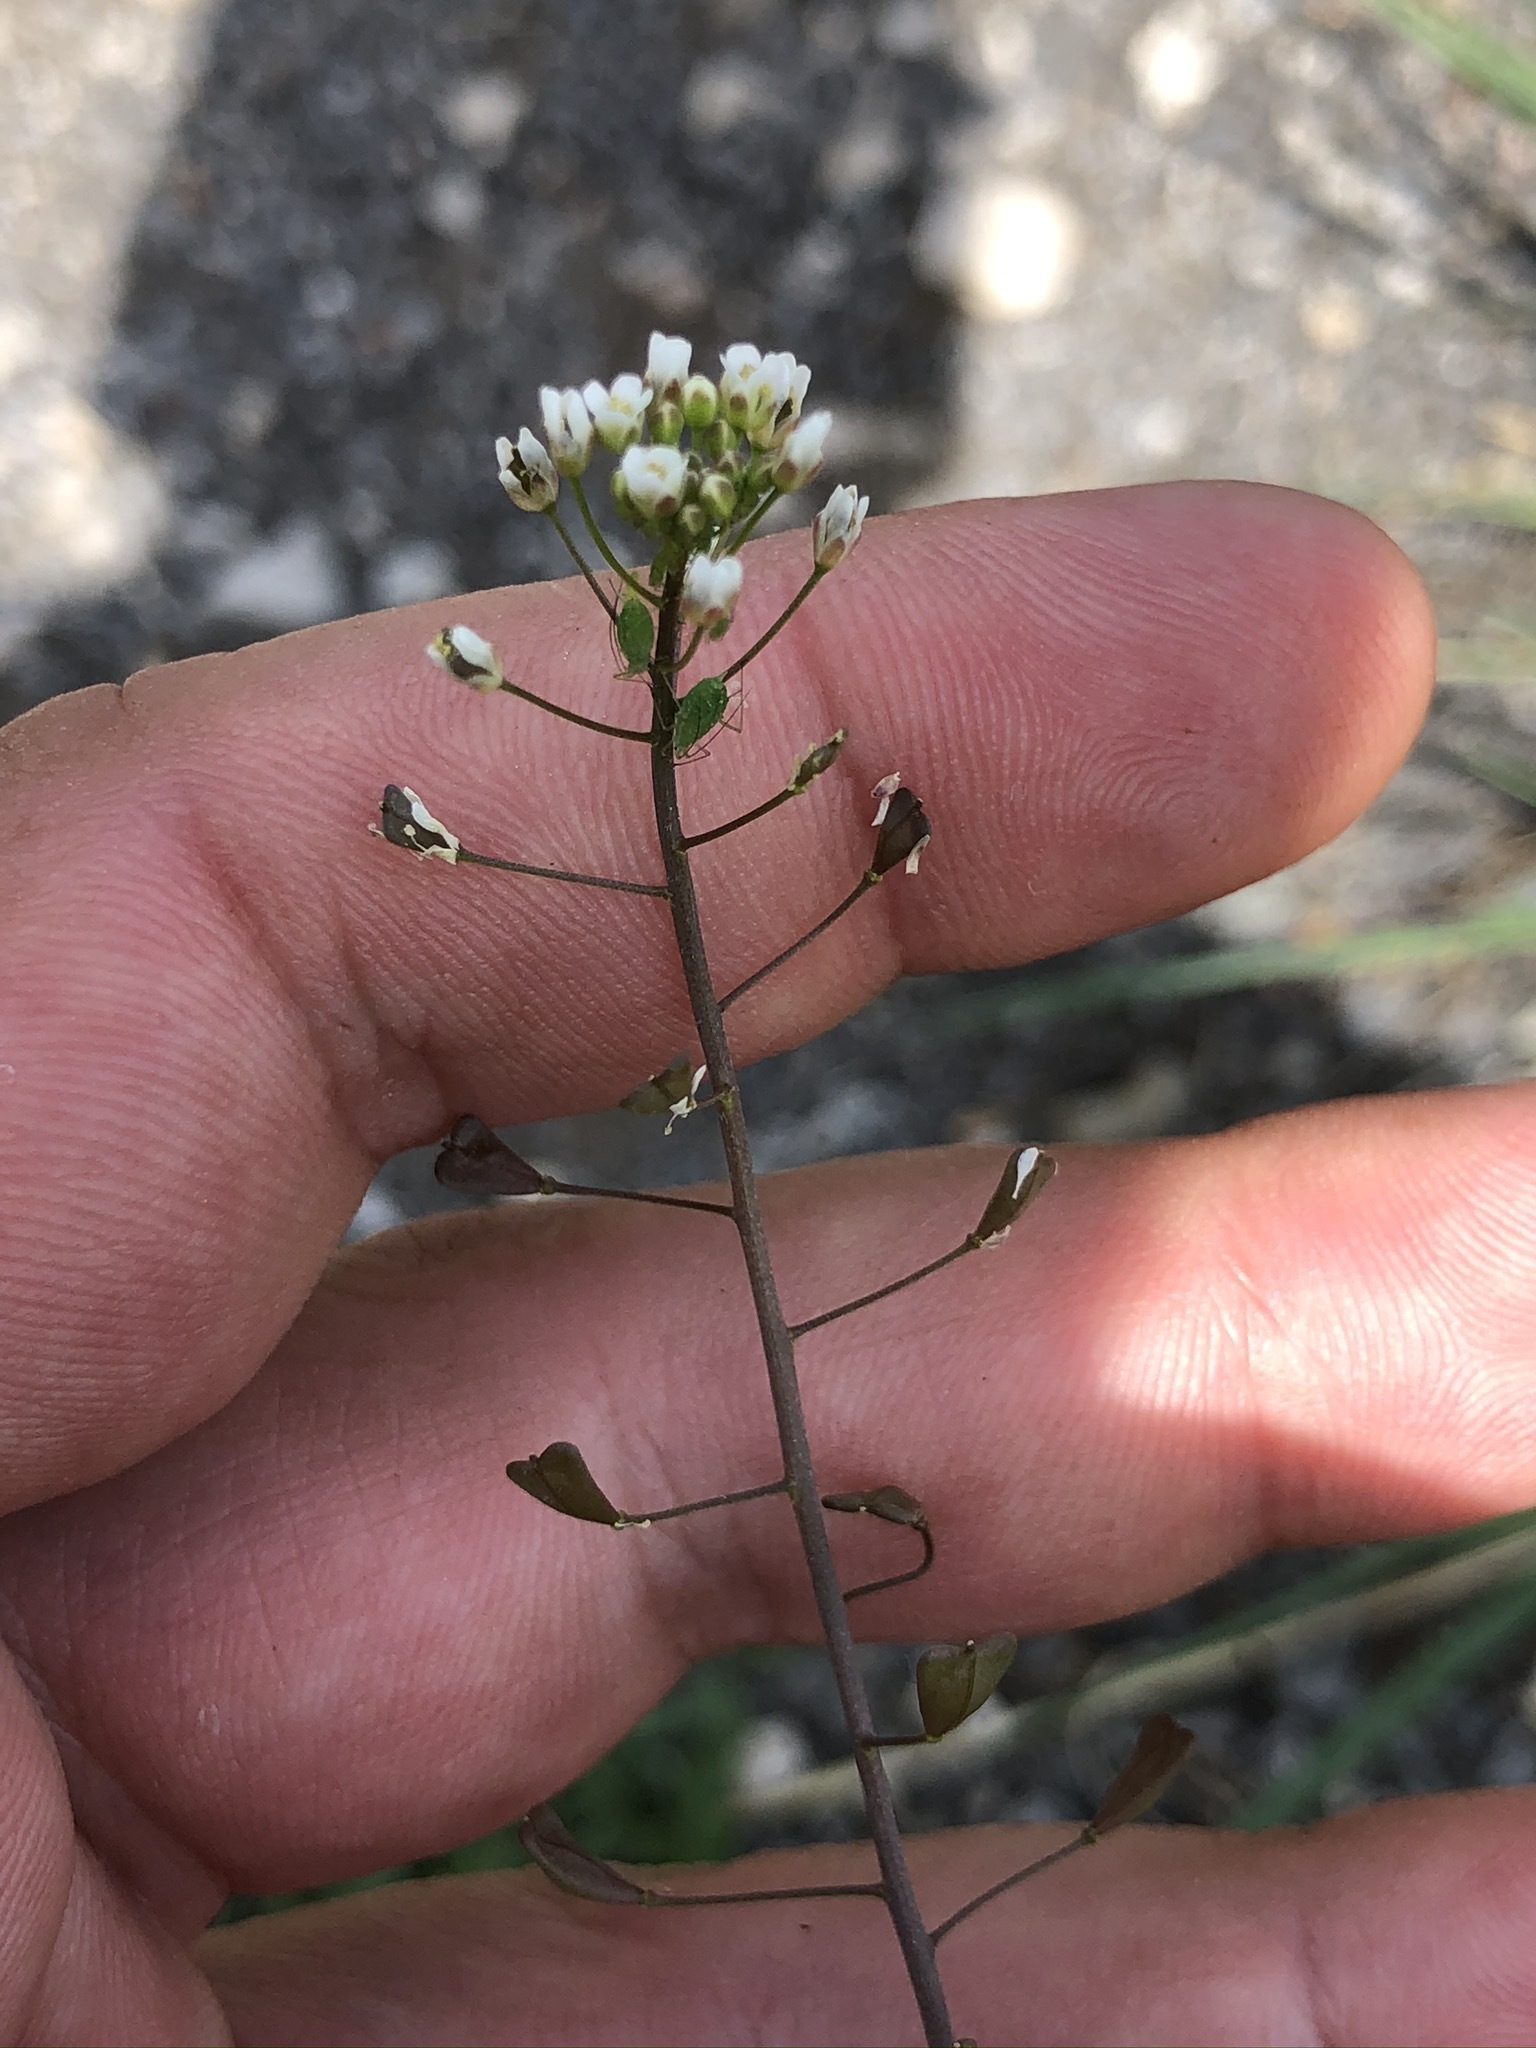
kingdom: Plantae
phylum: Tracheophyta
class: Magnoliopsida
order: Brassicales
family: Brassicaceae
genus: Capsella
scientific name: Capsella bursa-pastoris
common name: Shepherd's purse
